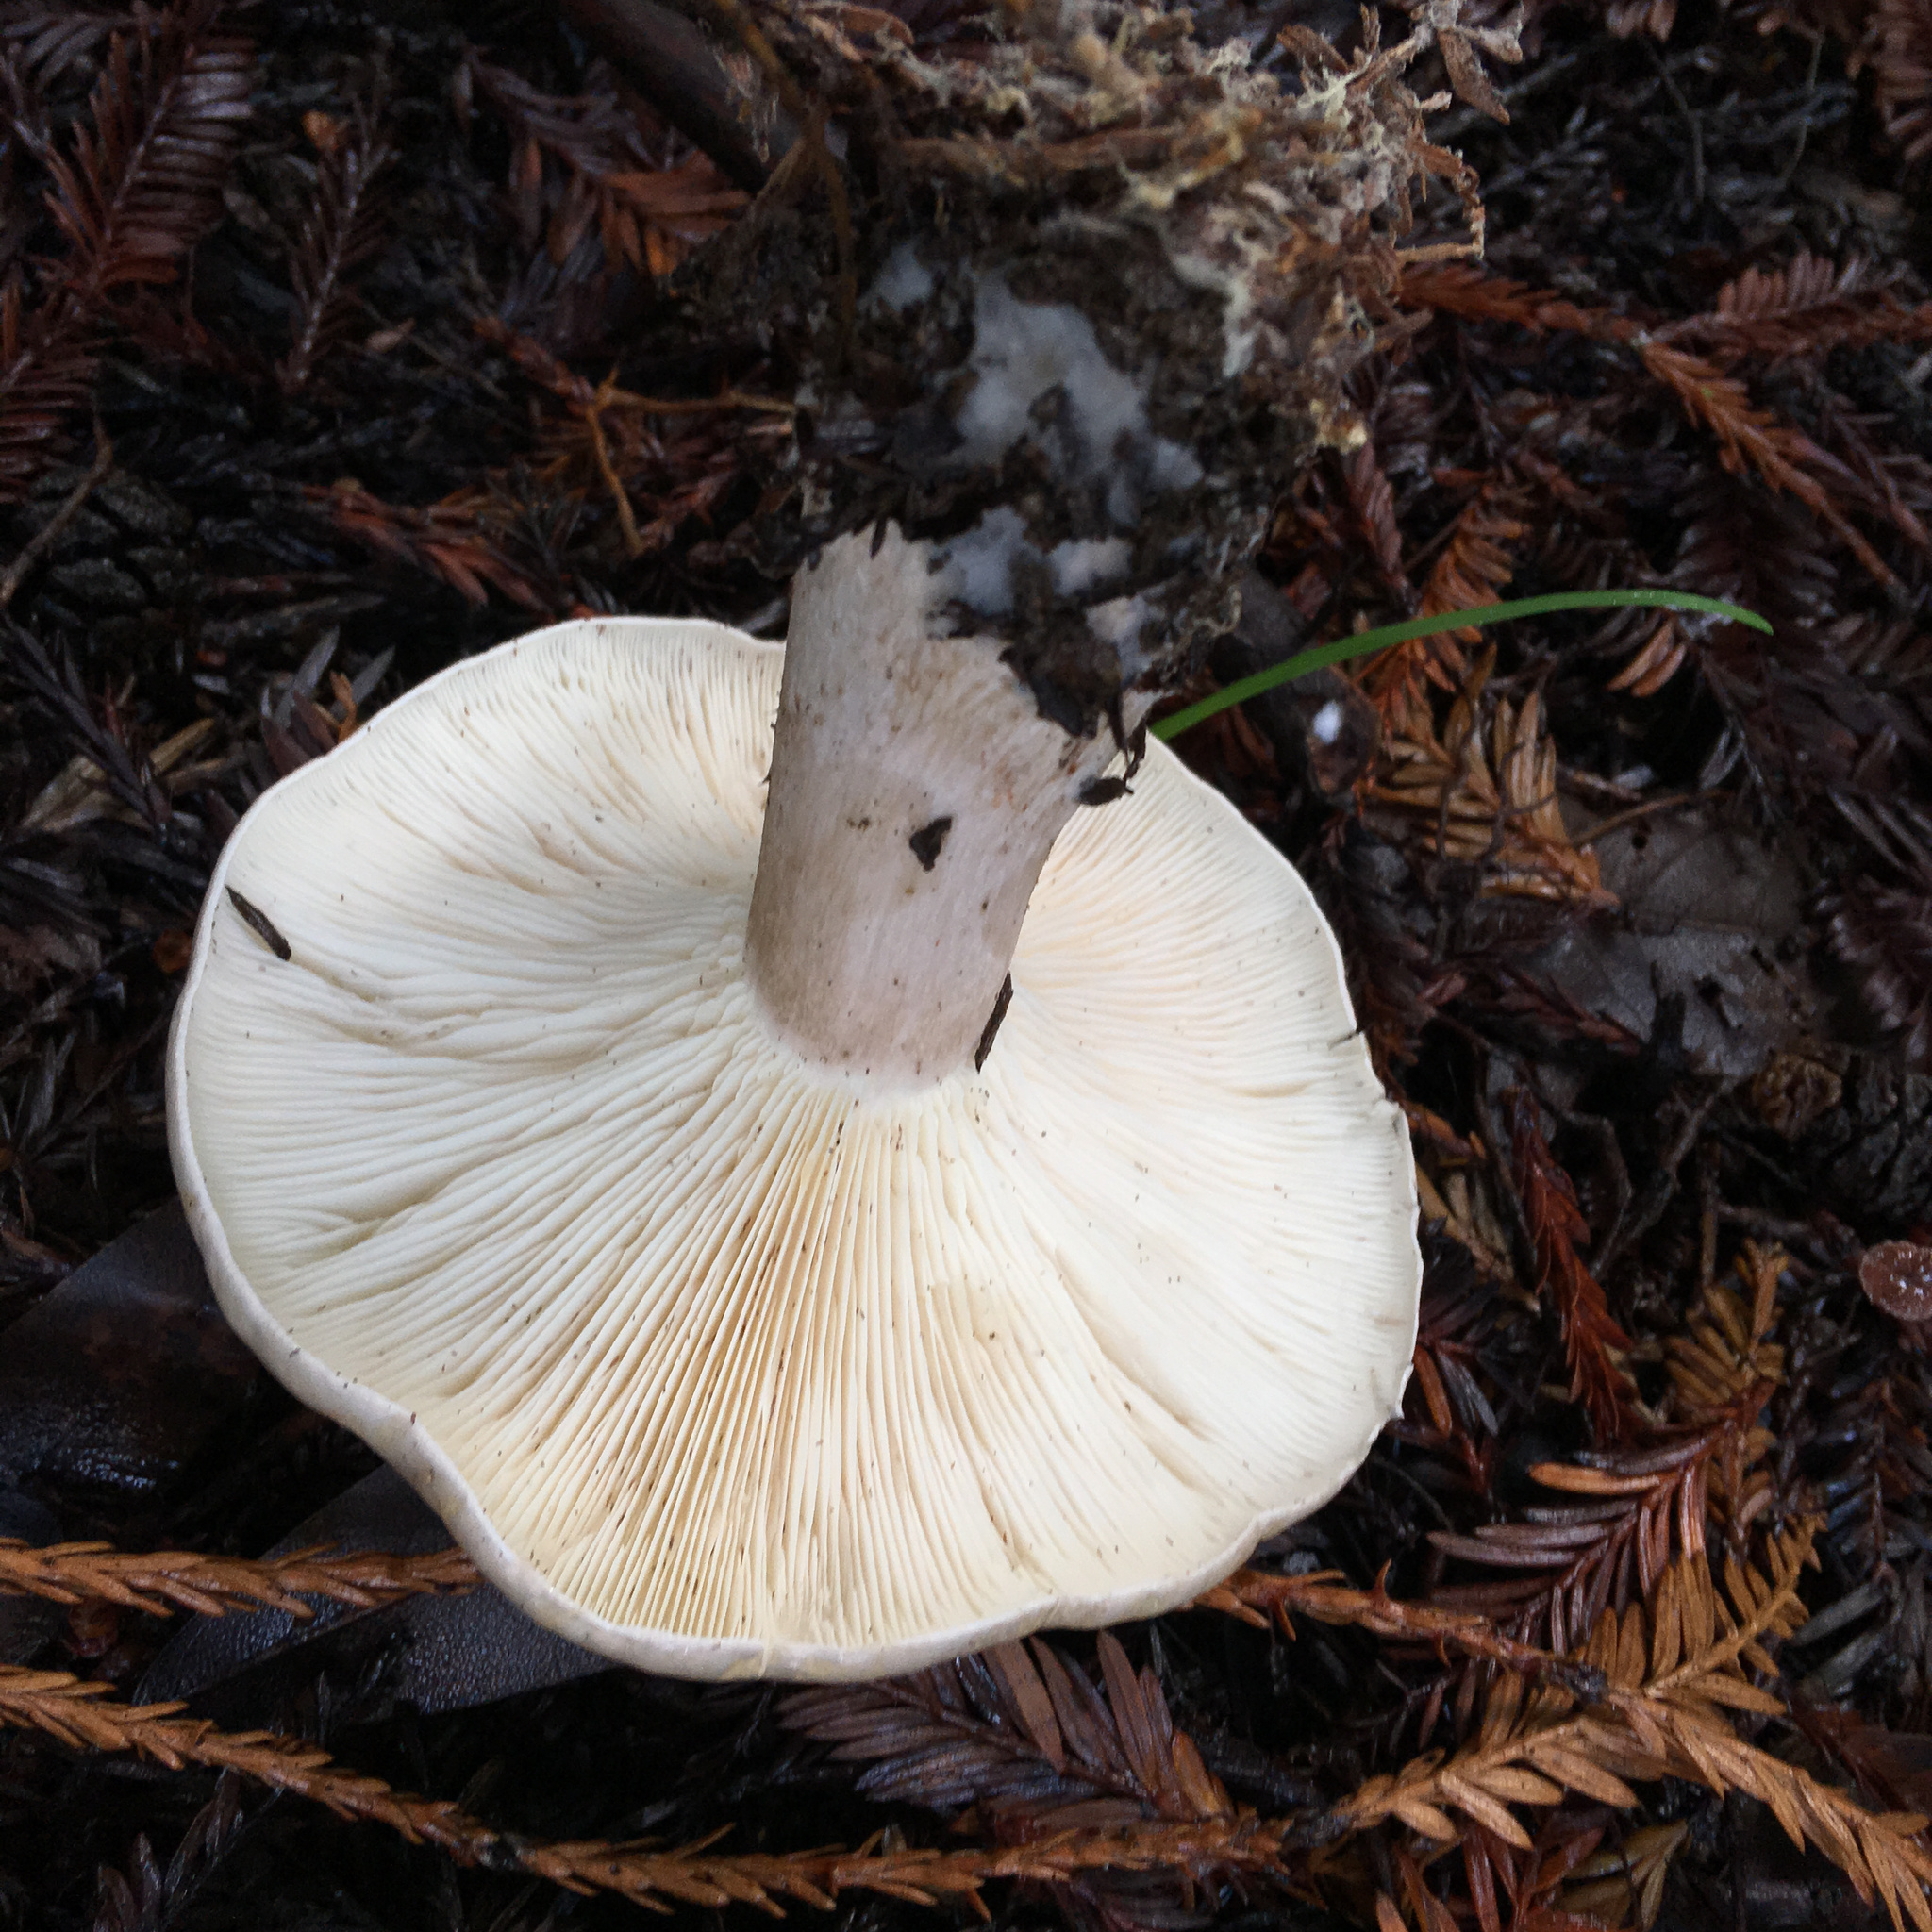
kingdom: Fungi
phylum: Basidiomycota
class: Agaricomycetes
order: Agaricales
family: Tricholomataceae
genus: Leucopaxillus
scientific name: Leucopaxillus albissimus
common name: Large white leucopax
